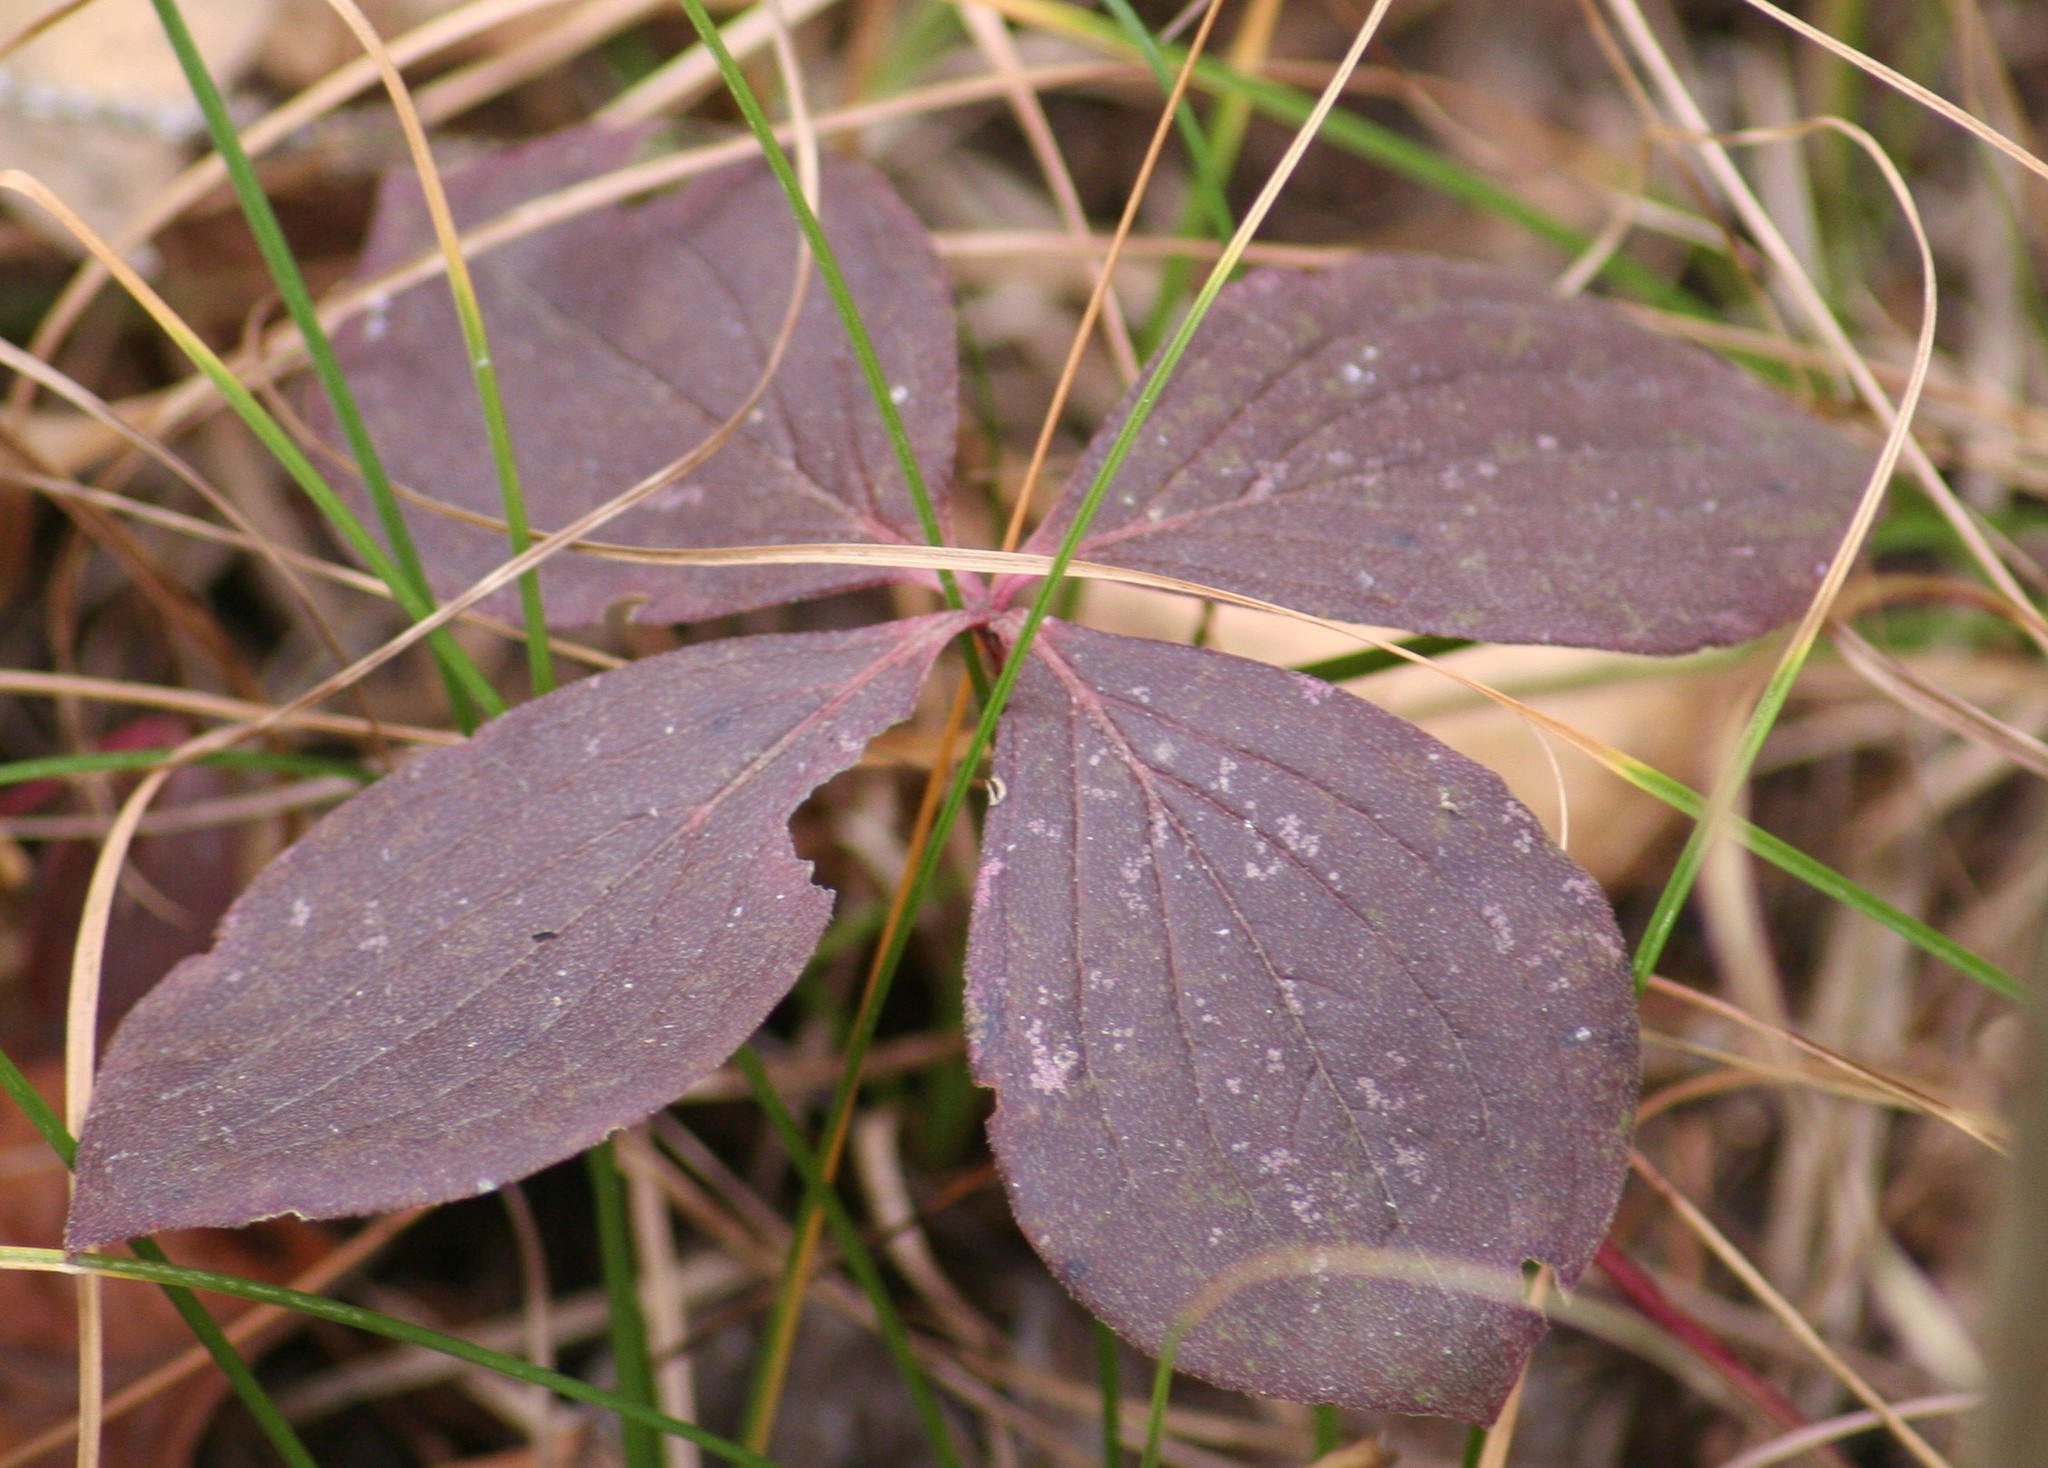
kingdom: Plantae
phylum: Tracheophyta
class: Magnoliopsida
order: Cornales
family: Cornaceae
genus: Cornus
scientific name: Cornus canadensis
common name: Creeping dogwood
